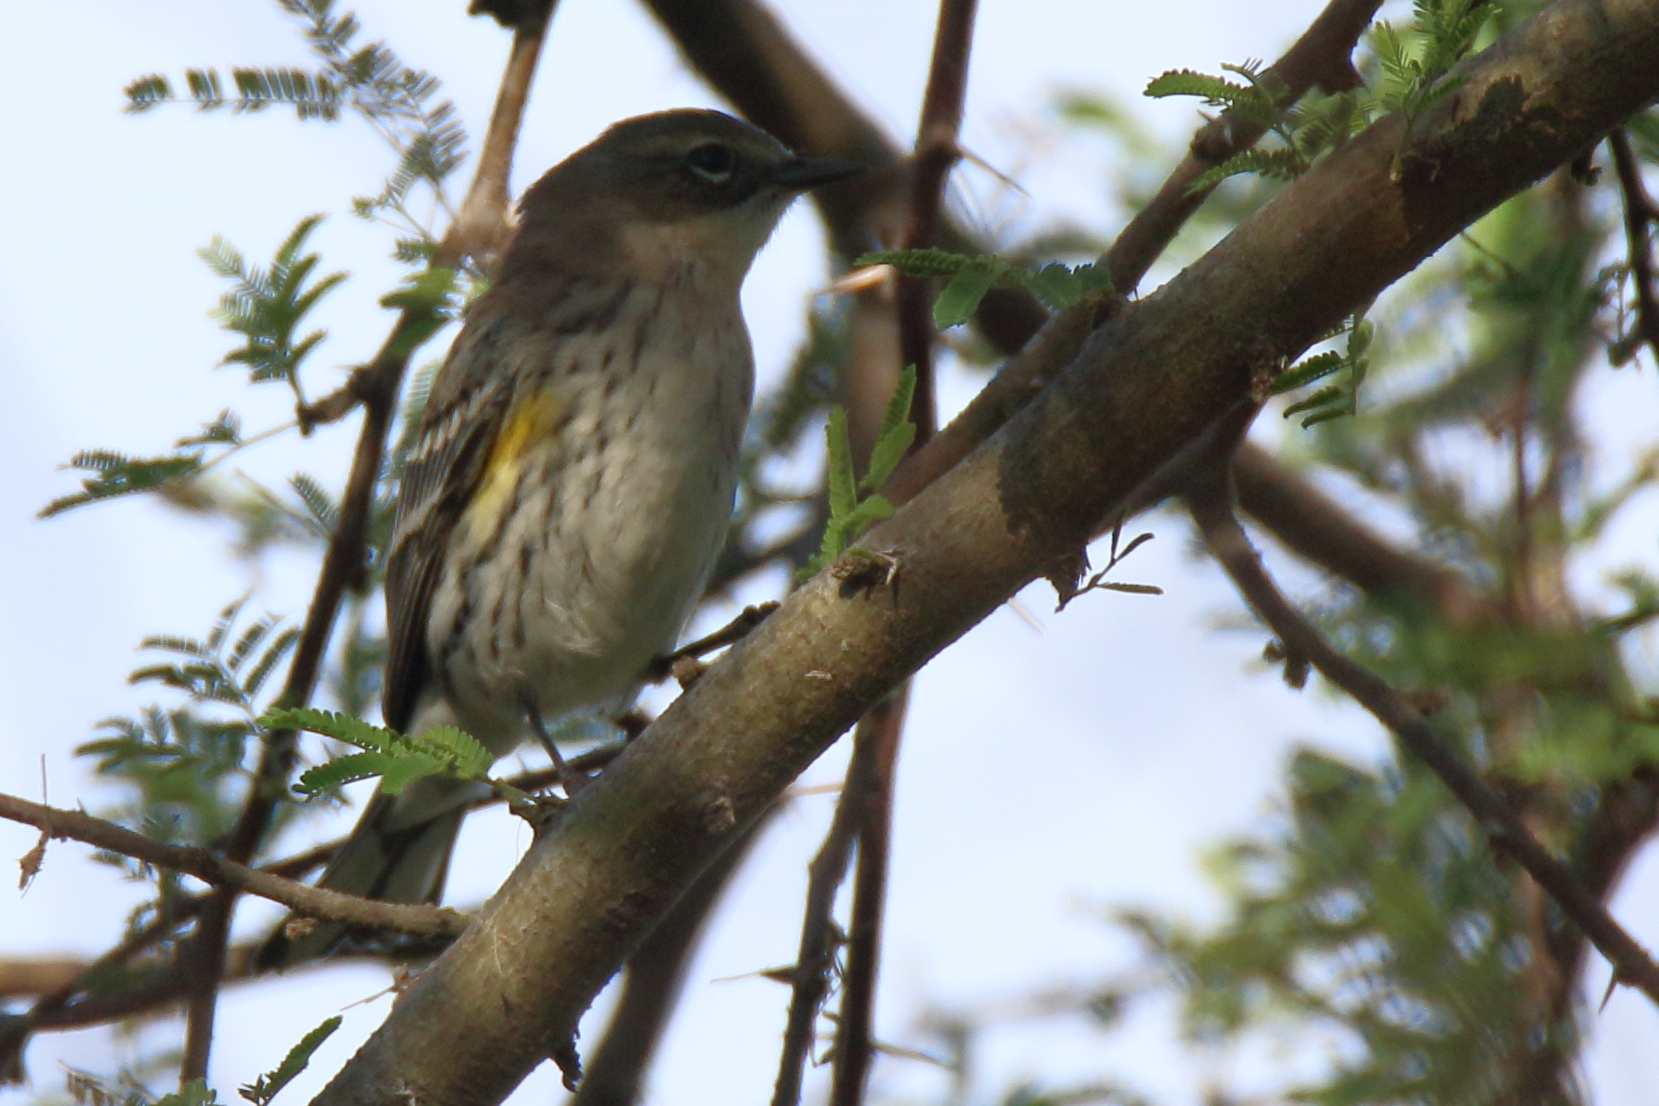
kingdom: Animalia
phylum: Chordata
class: Aves
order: Passeriformes
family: Parulidae
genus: Setophaga
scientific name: Setophaga coronata
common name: Myrtle warbler
